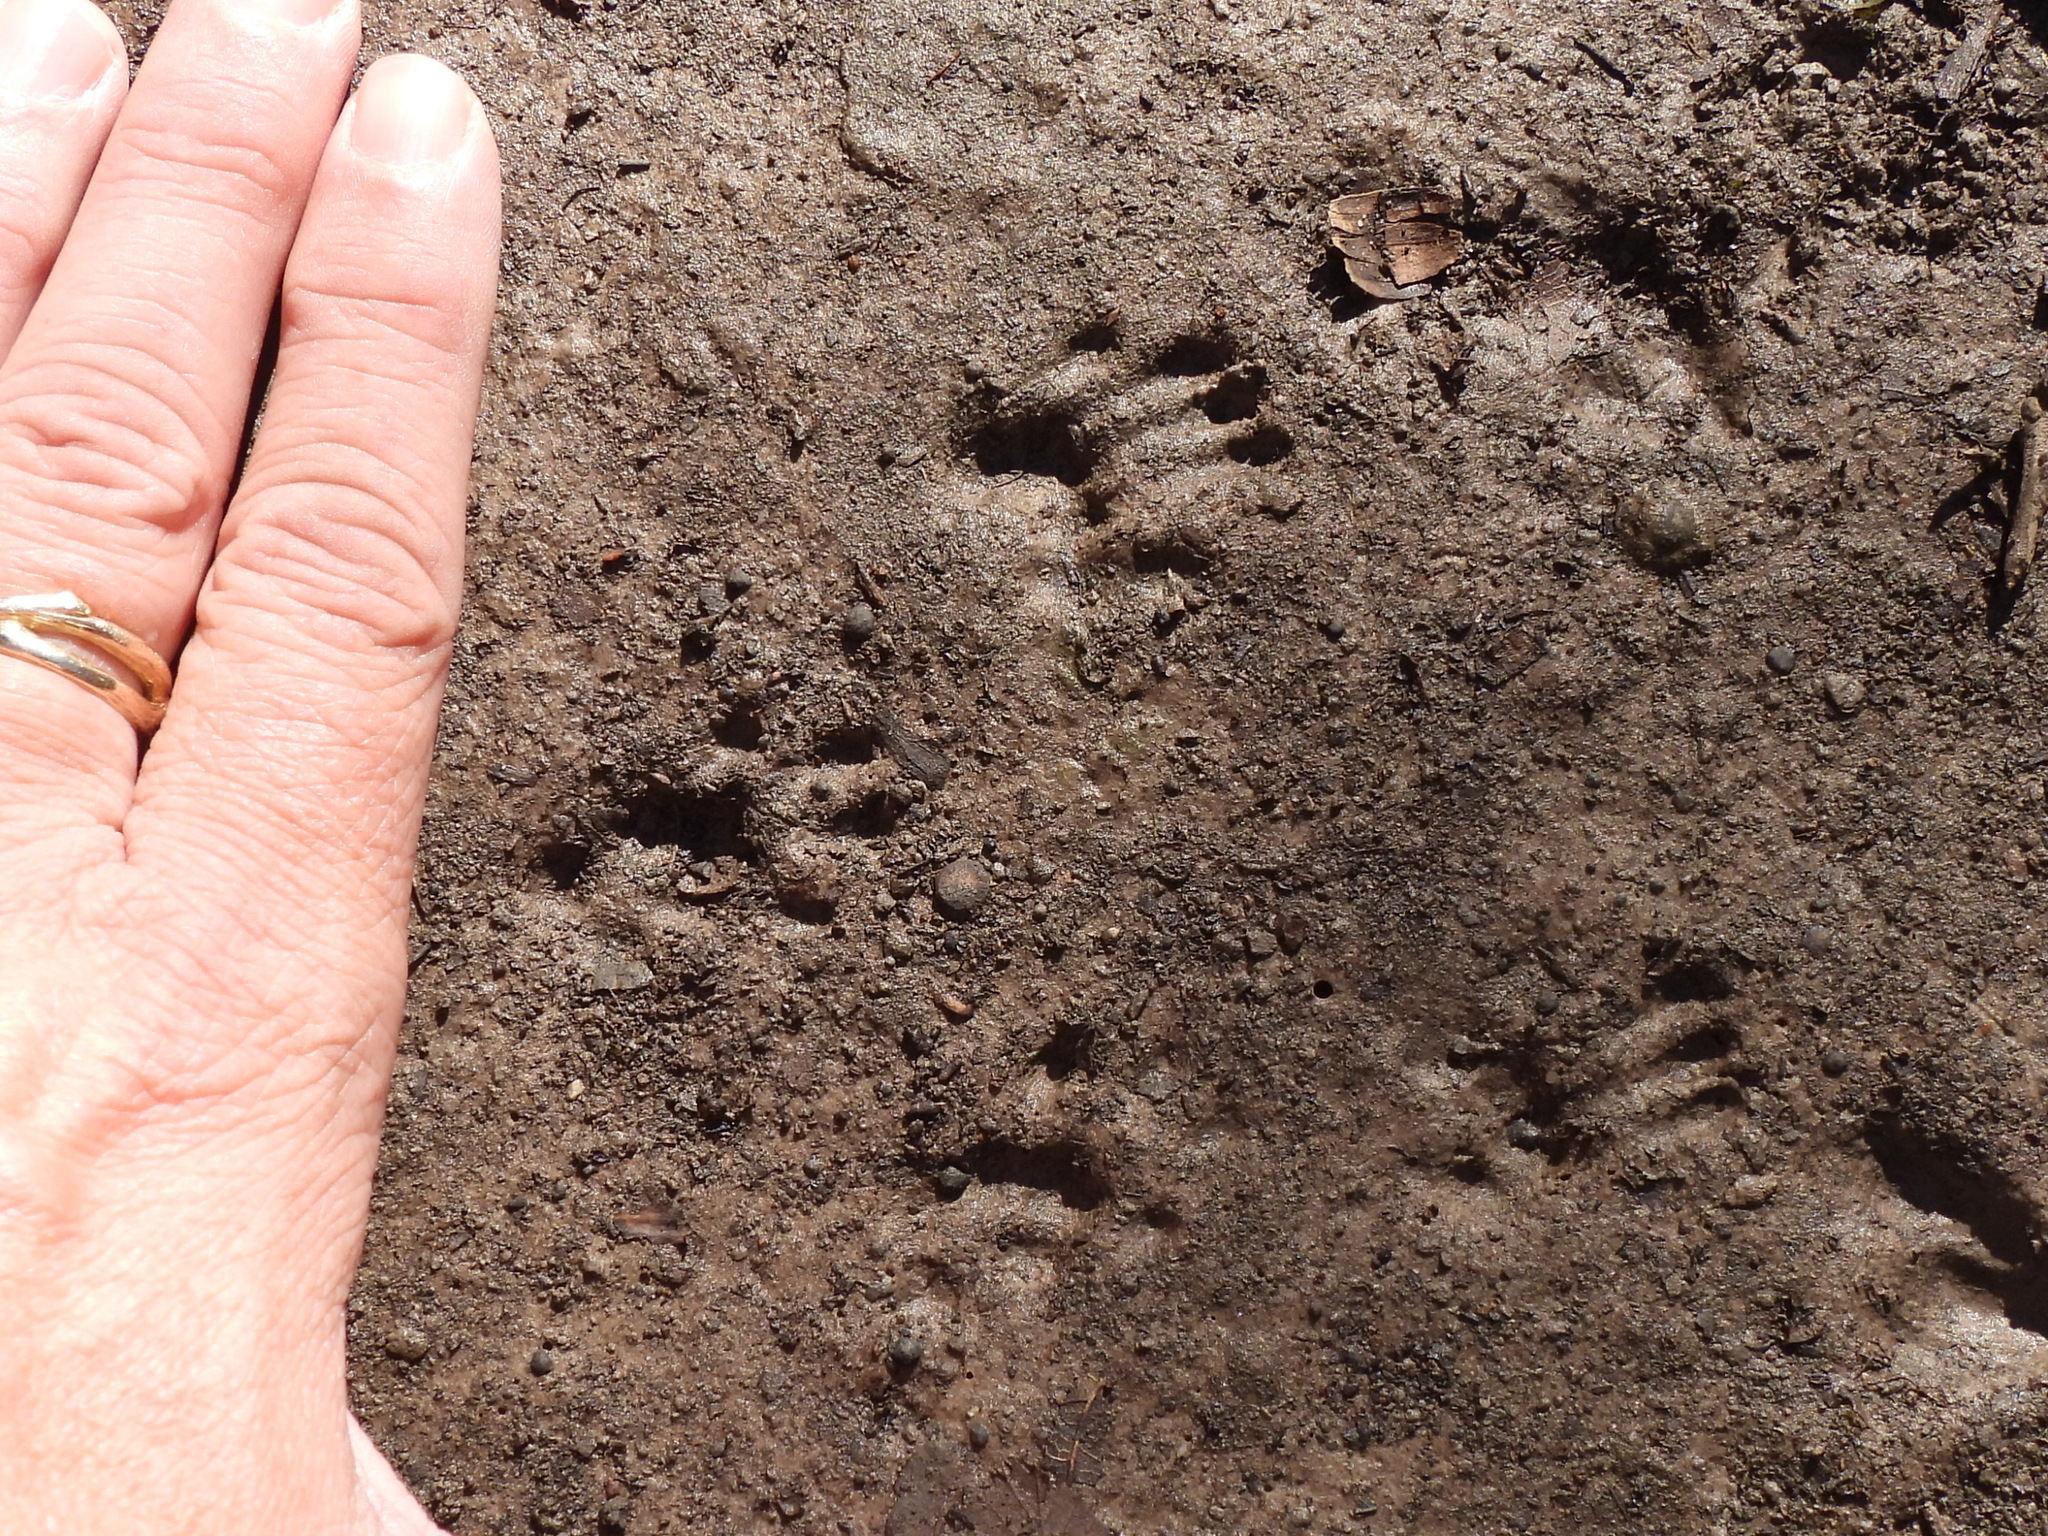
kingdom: Animalia
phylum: Chordata
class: Mammalia
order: Rodentia
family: Sciuridae
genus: Sciurus
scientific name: Sciurus niger
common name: Fox squirrel
